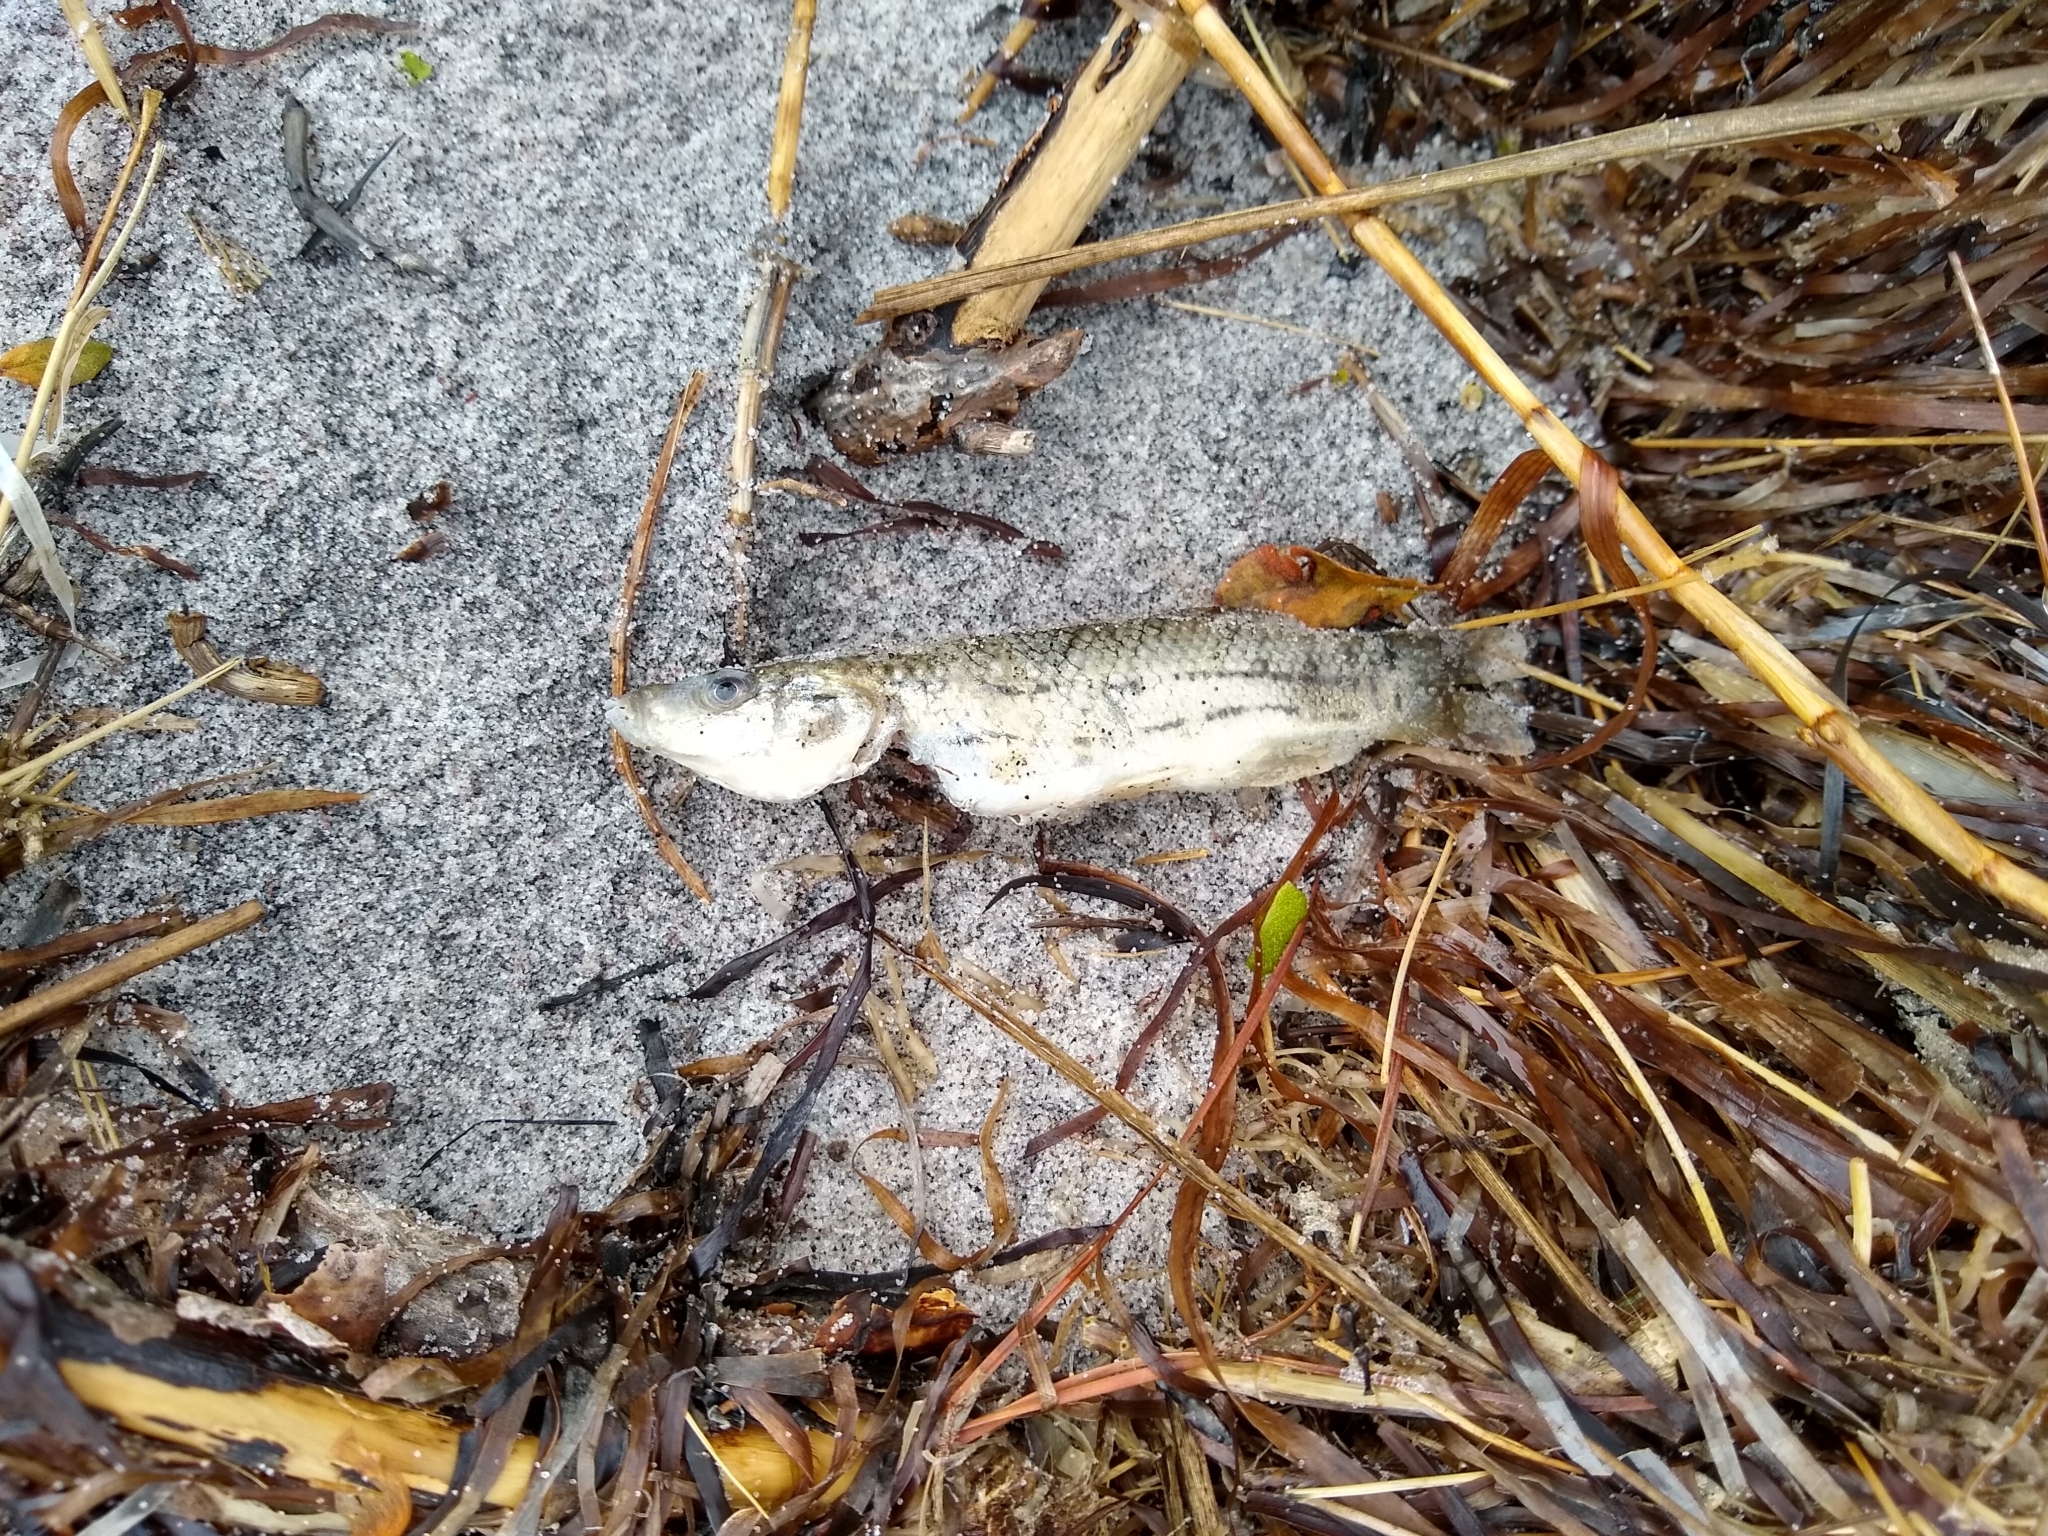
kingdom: Animalia
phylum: Chordata
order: Cyprinodontiformes
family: Fundulidae
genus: Fundulus
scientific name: Fundulus majalis
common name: Striped killifish
